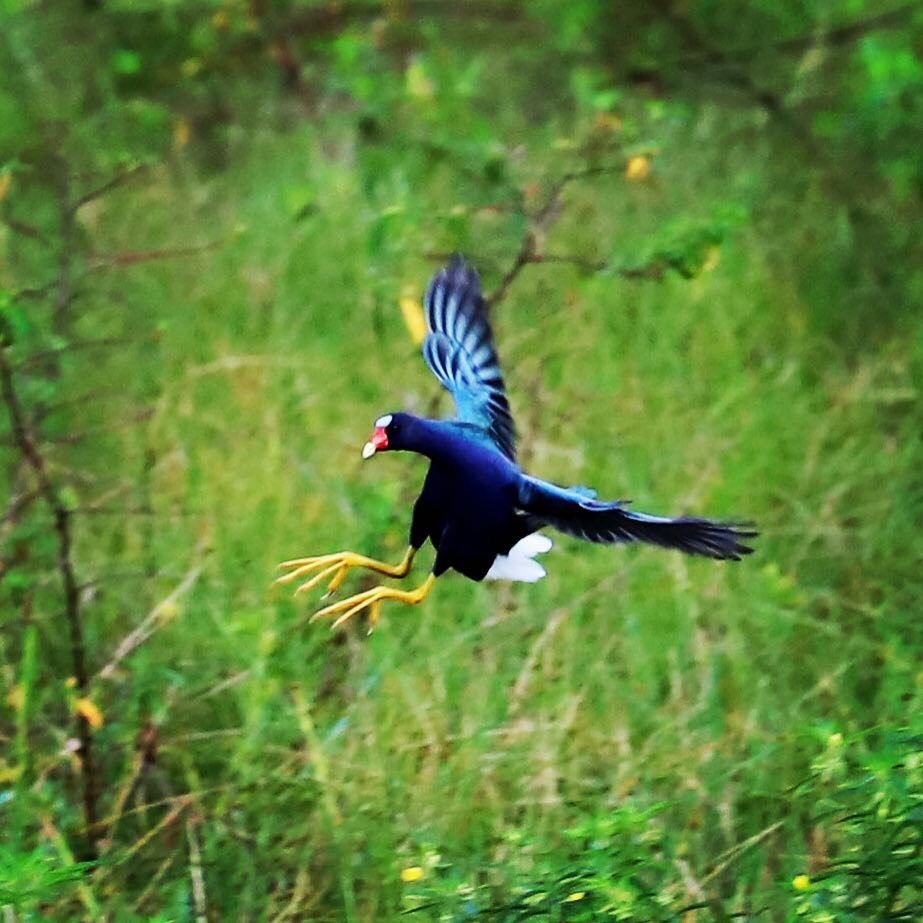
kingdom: Animalia
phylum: Chordata
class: Aves
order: Gruiformes
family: Rallidae
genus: Porphyrio
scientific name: Porphyrio martinica
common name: Purple gallinule
